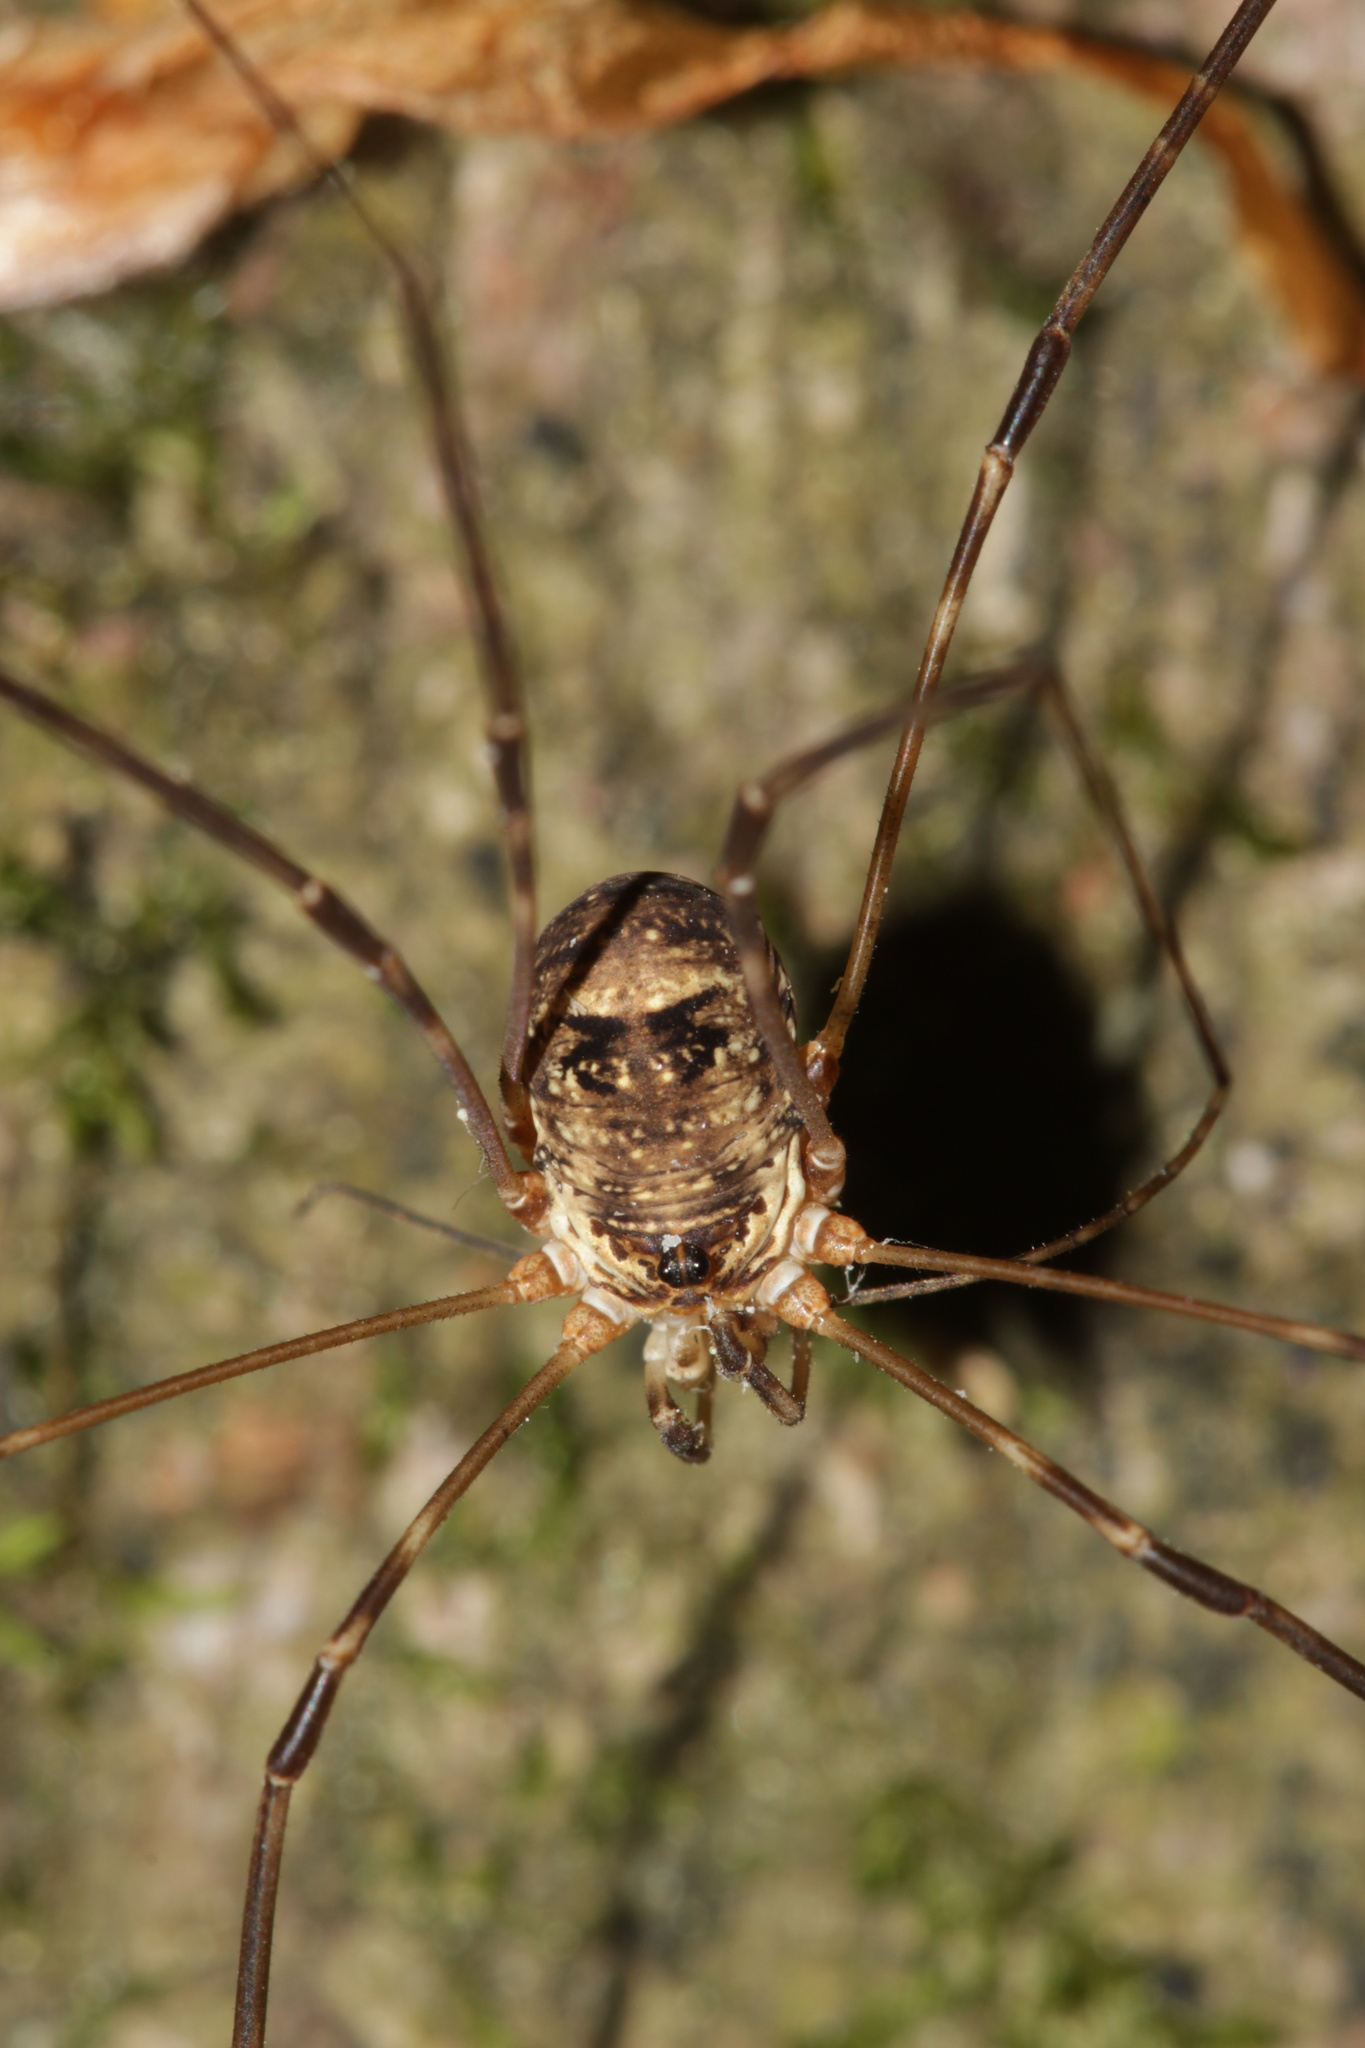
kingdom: Animalia
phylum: Arthropoda
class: Arachnida
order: Opiliones
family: Phalangiidae
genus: Amilenus
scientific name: Amilenus aurantiacus
